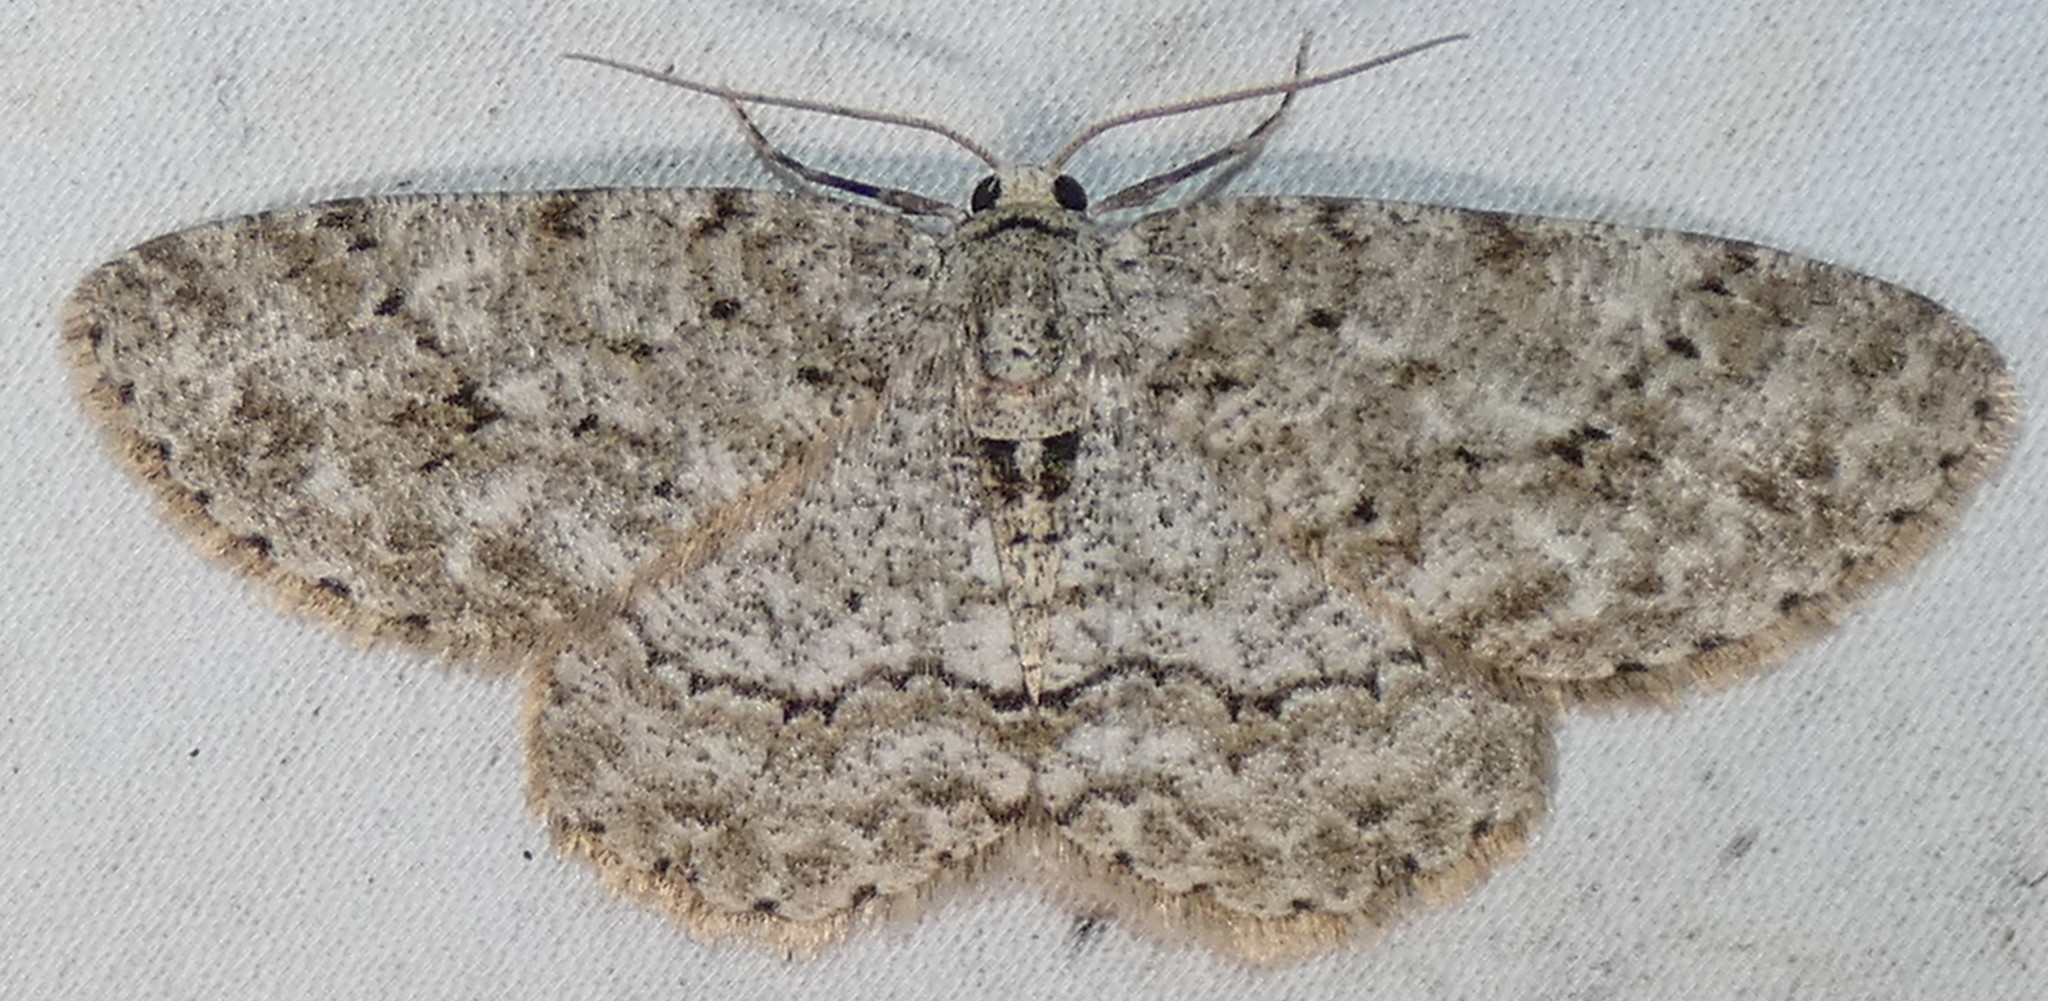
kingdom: Animalia
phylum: Arthropoda
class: Insecta
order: Lepidoptera
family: Geometridae
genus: Ectropis
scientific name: Ectropis crepuscularia
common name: Engrailed
